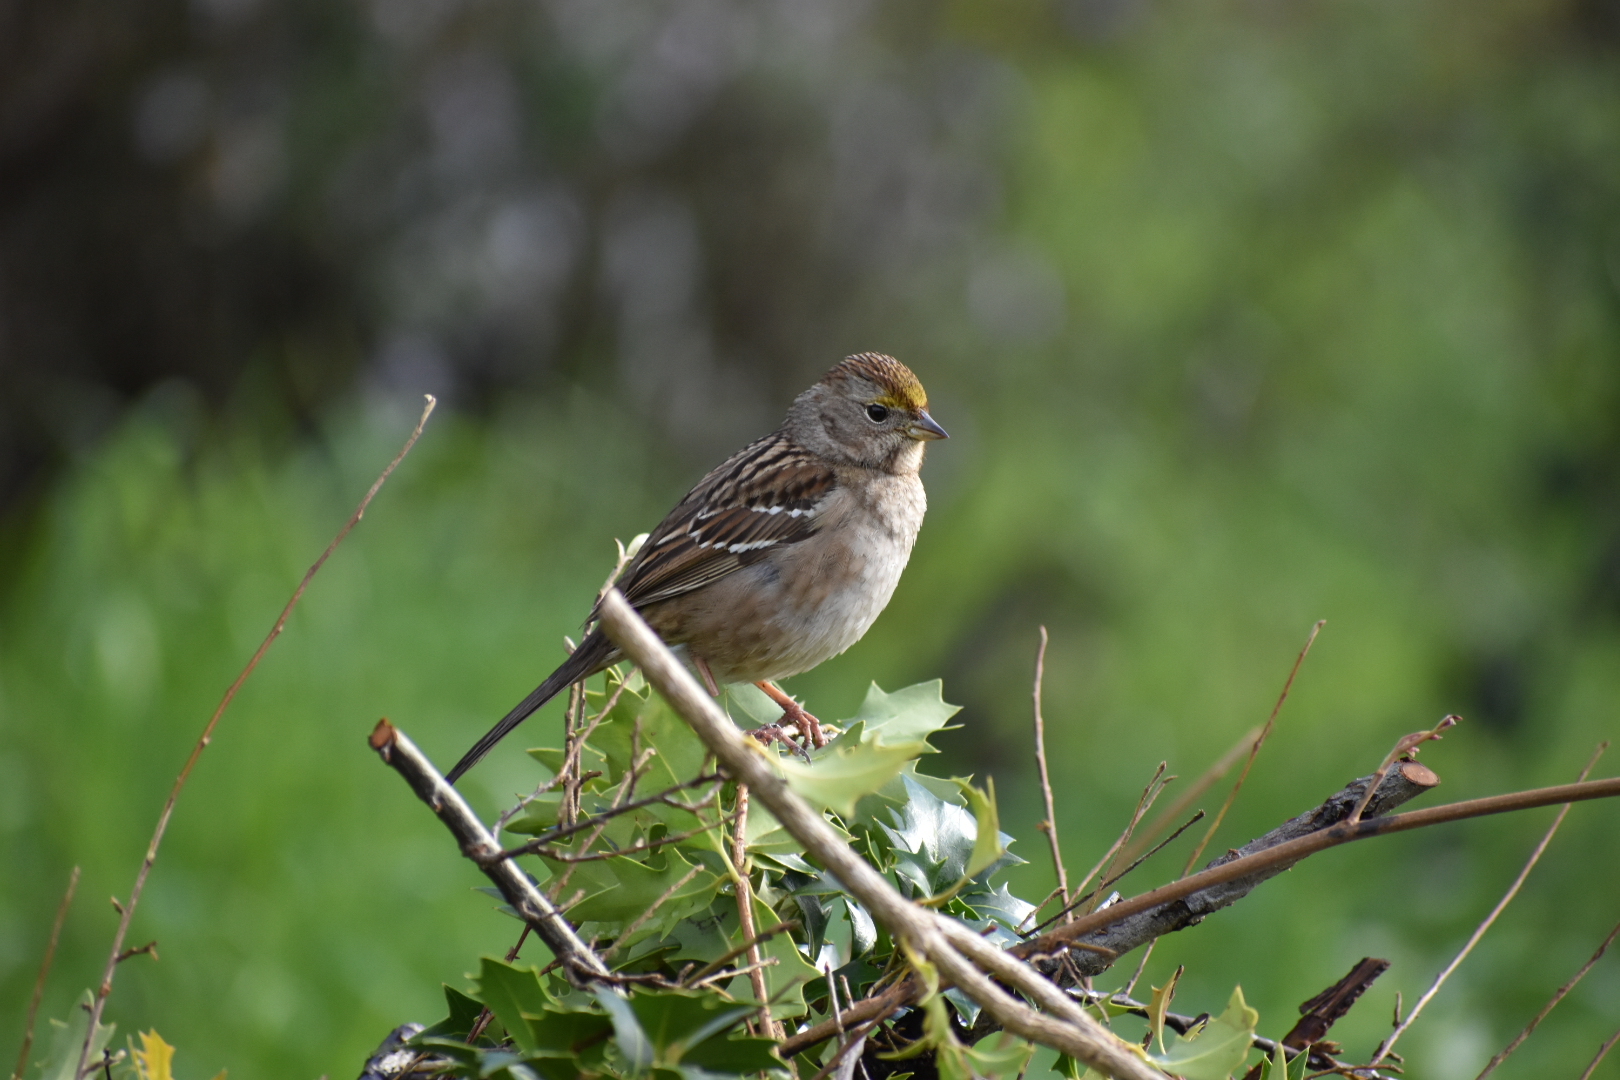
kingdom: Animalia
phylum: Chordata
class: Aves
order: Passeriformes
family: Passerellidae
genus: Zonotrichia
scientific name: Zonotrichia atricapilla
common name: Golden-crowned sparrow
